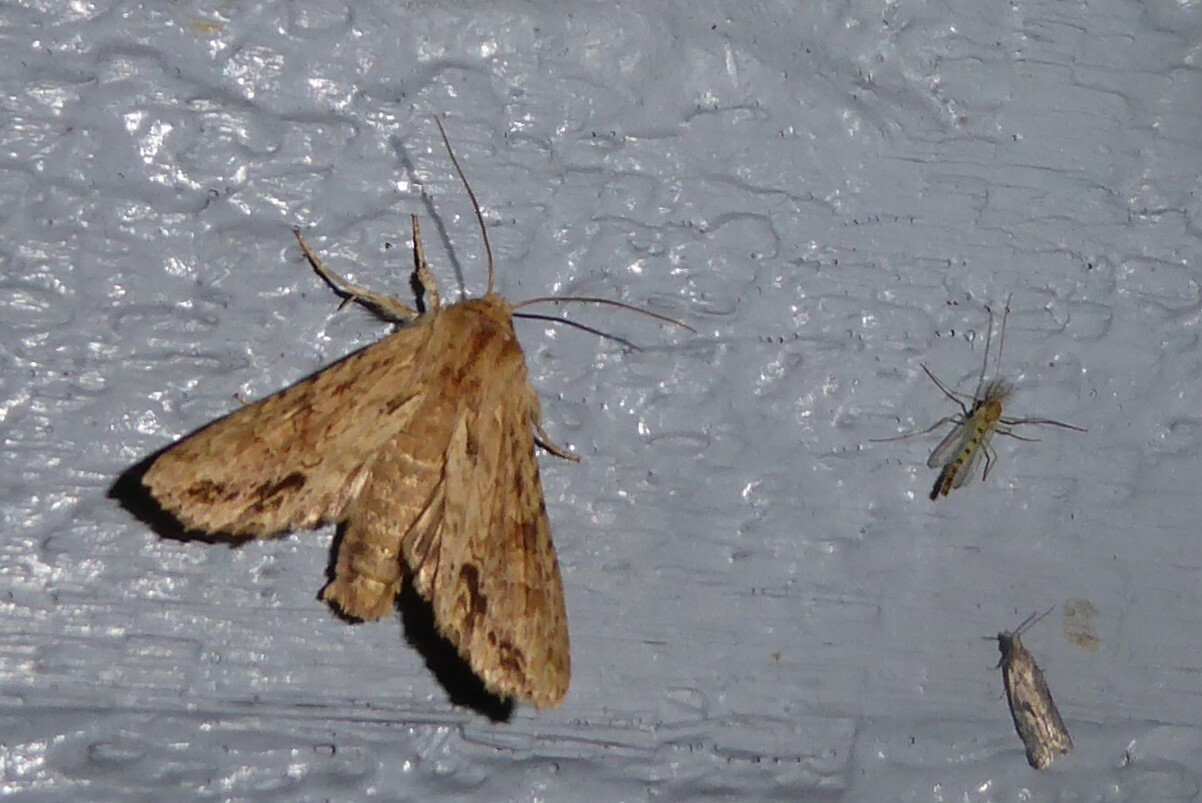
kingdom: Animalia
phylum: Arthropoda
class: Insecta
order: Lepidoptera
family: Noctuidae
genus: Ichneutica
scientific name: Ichneutica mollis
